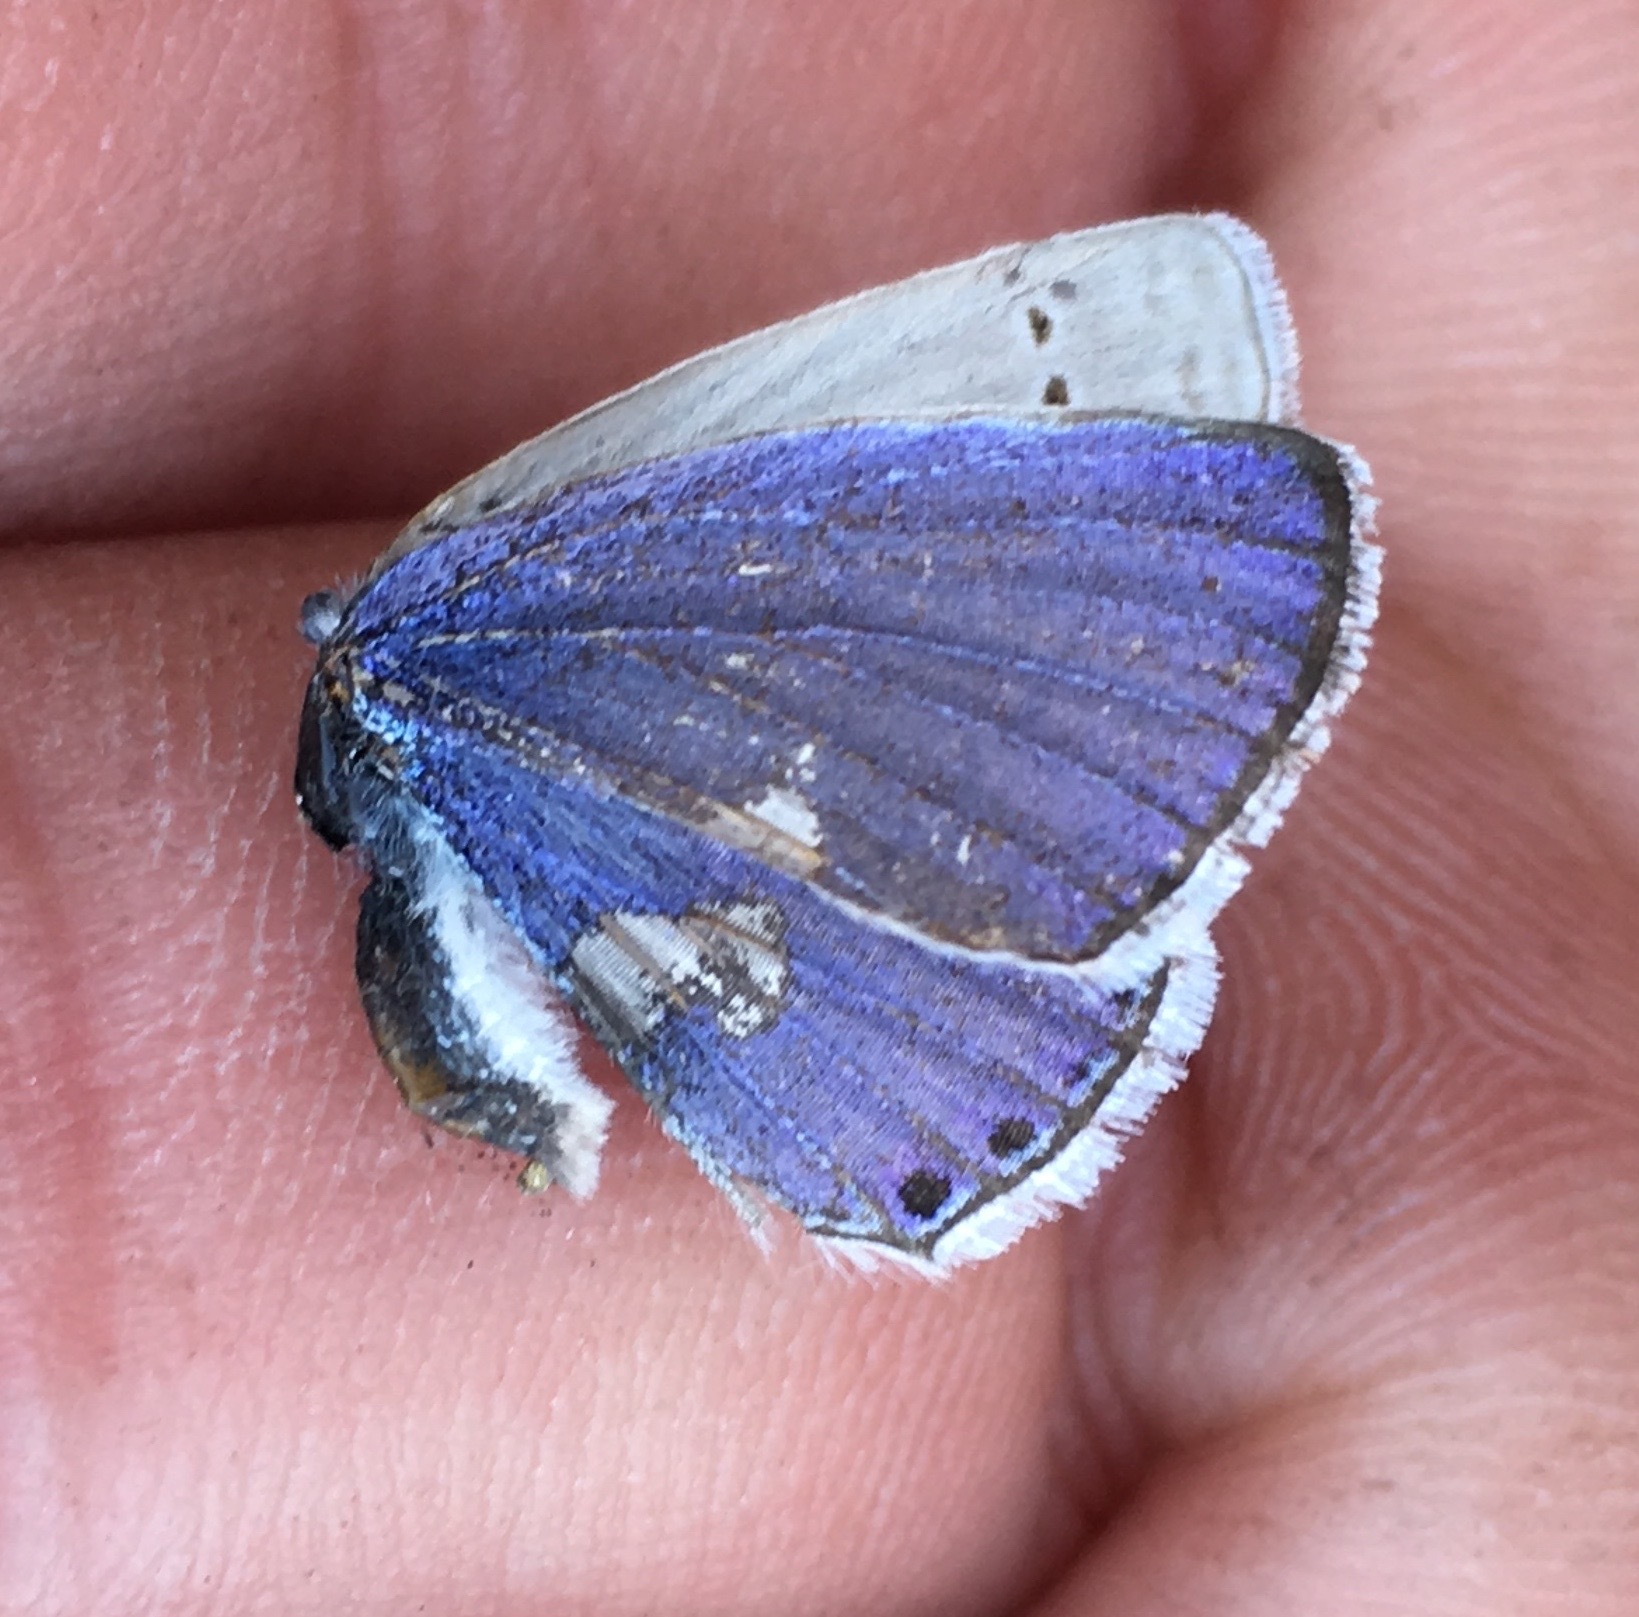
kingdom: Animalia
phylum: Arthropoda
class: Insecta
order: Lepidoptera
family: Lycaenidae
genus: Elkalyce
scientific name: Elkalyce amyntula
